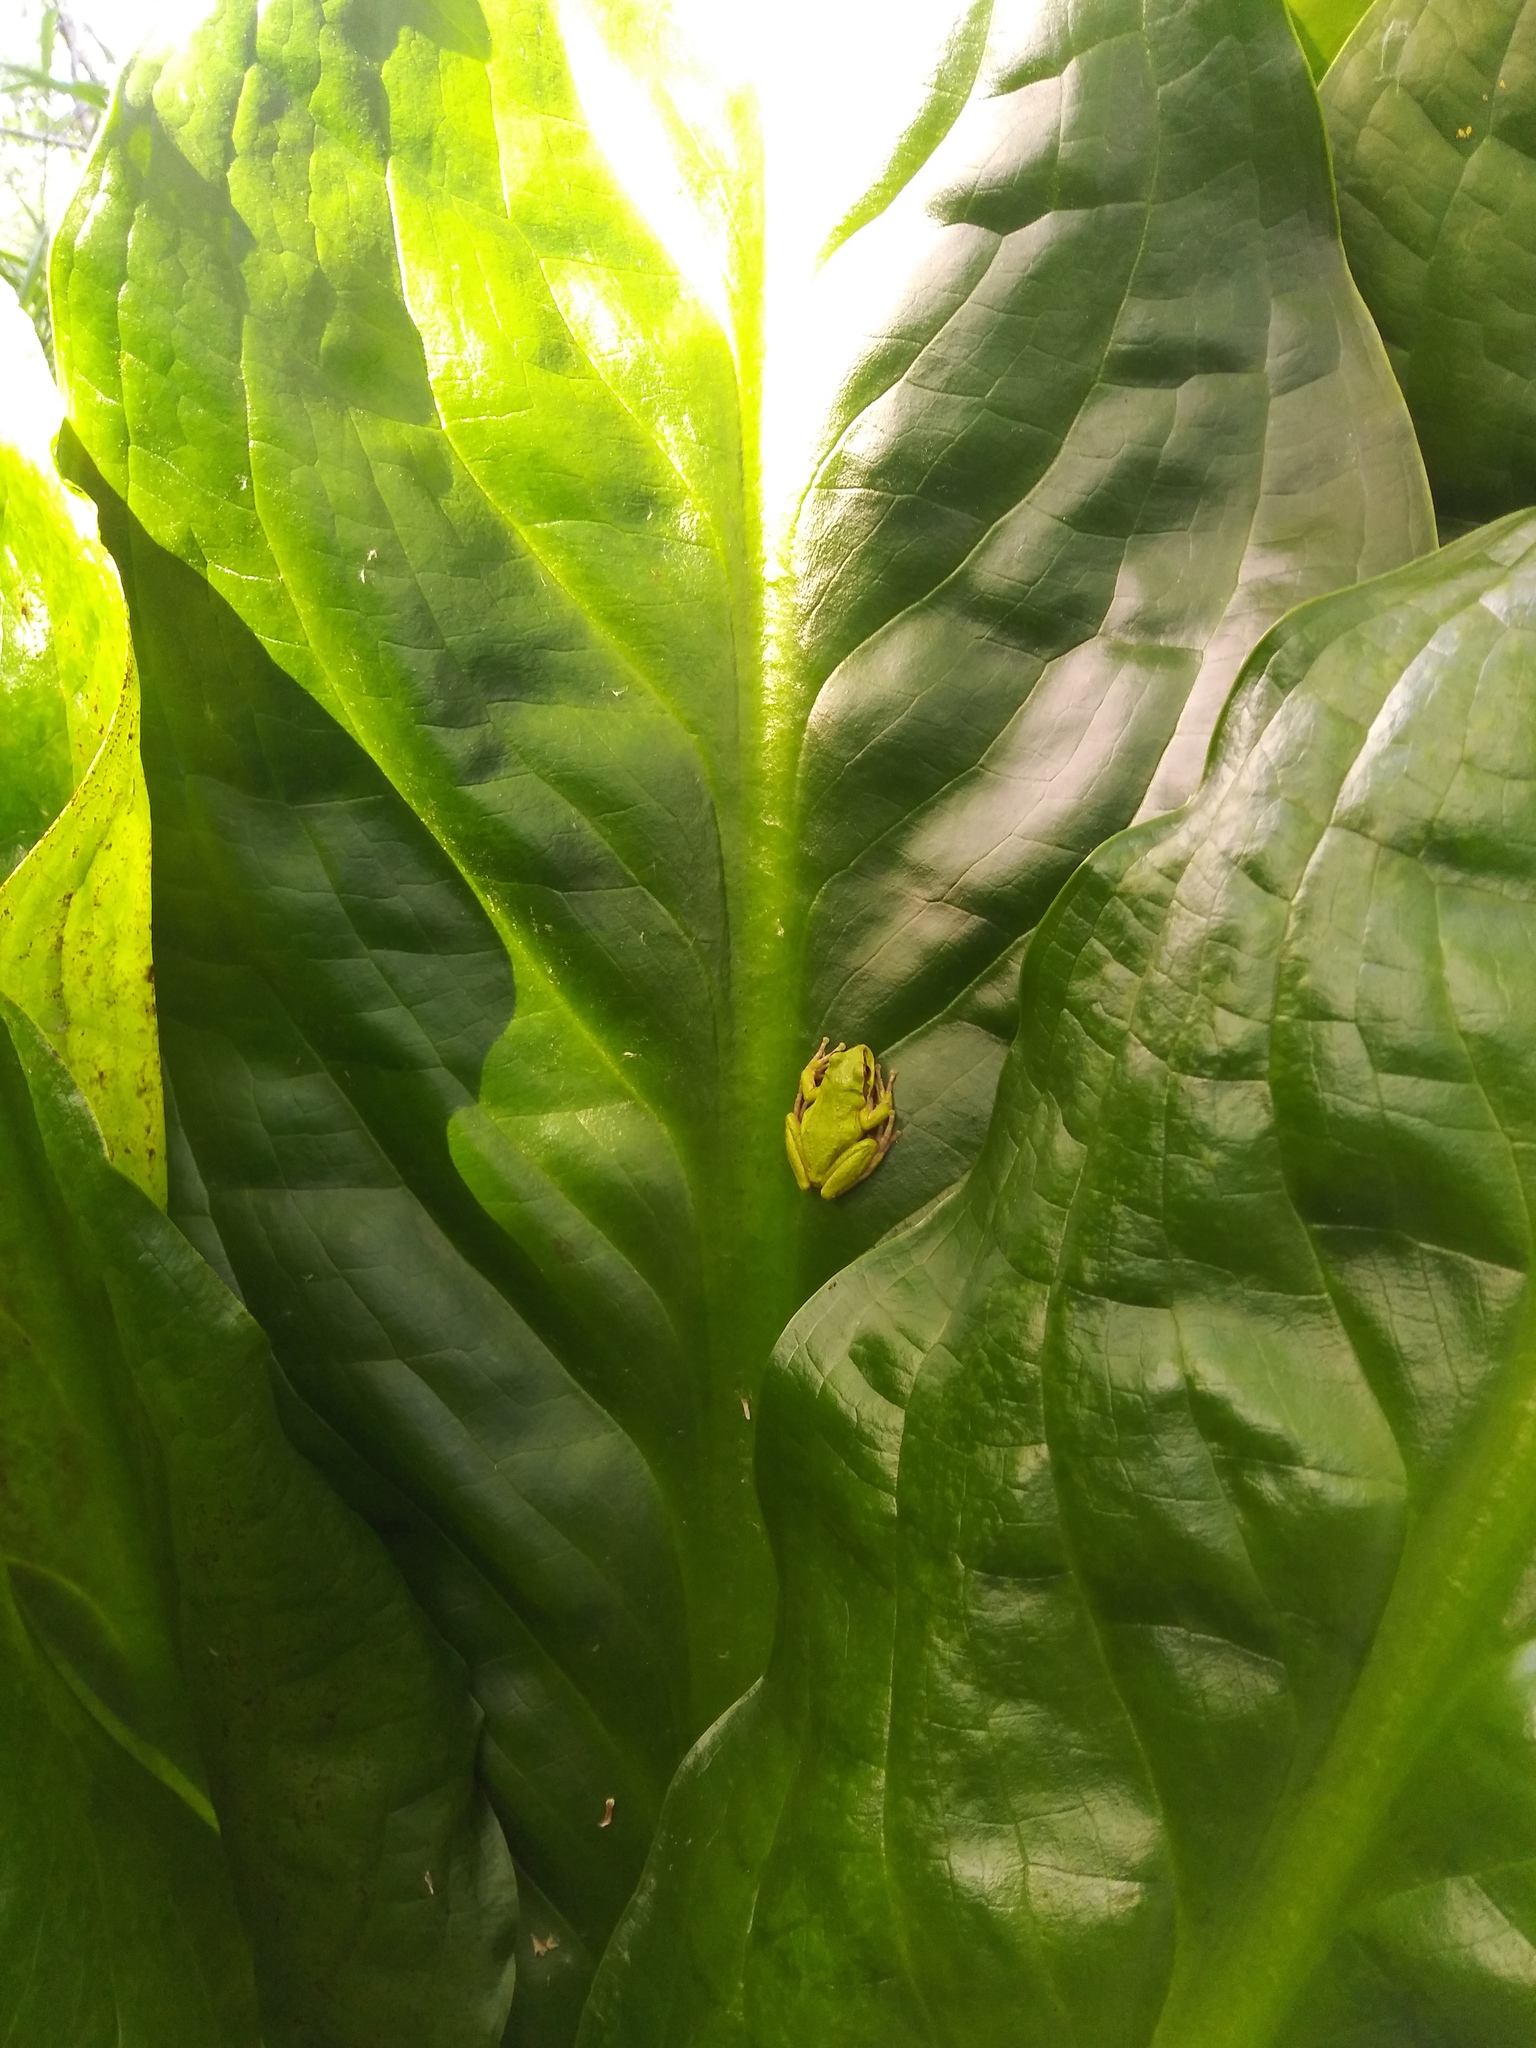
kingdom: Animalia
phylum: Chordata
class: Amphibia
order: Anura
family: Hylidae
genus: Pseudacris
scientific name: Pseudacris regilla
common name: Pacific chorus frog
